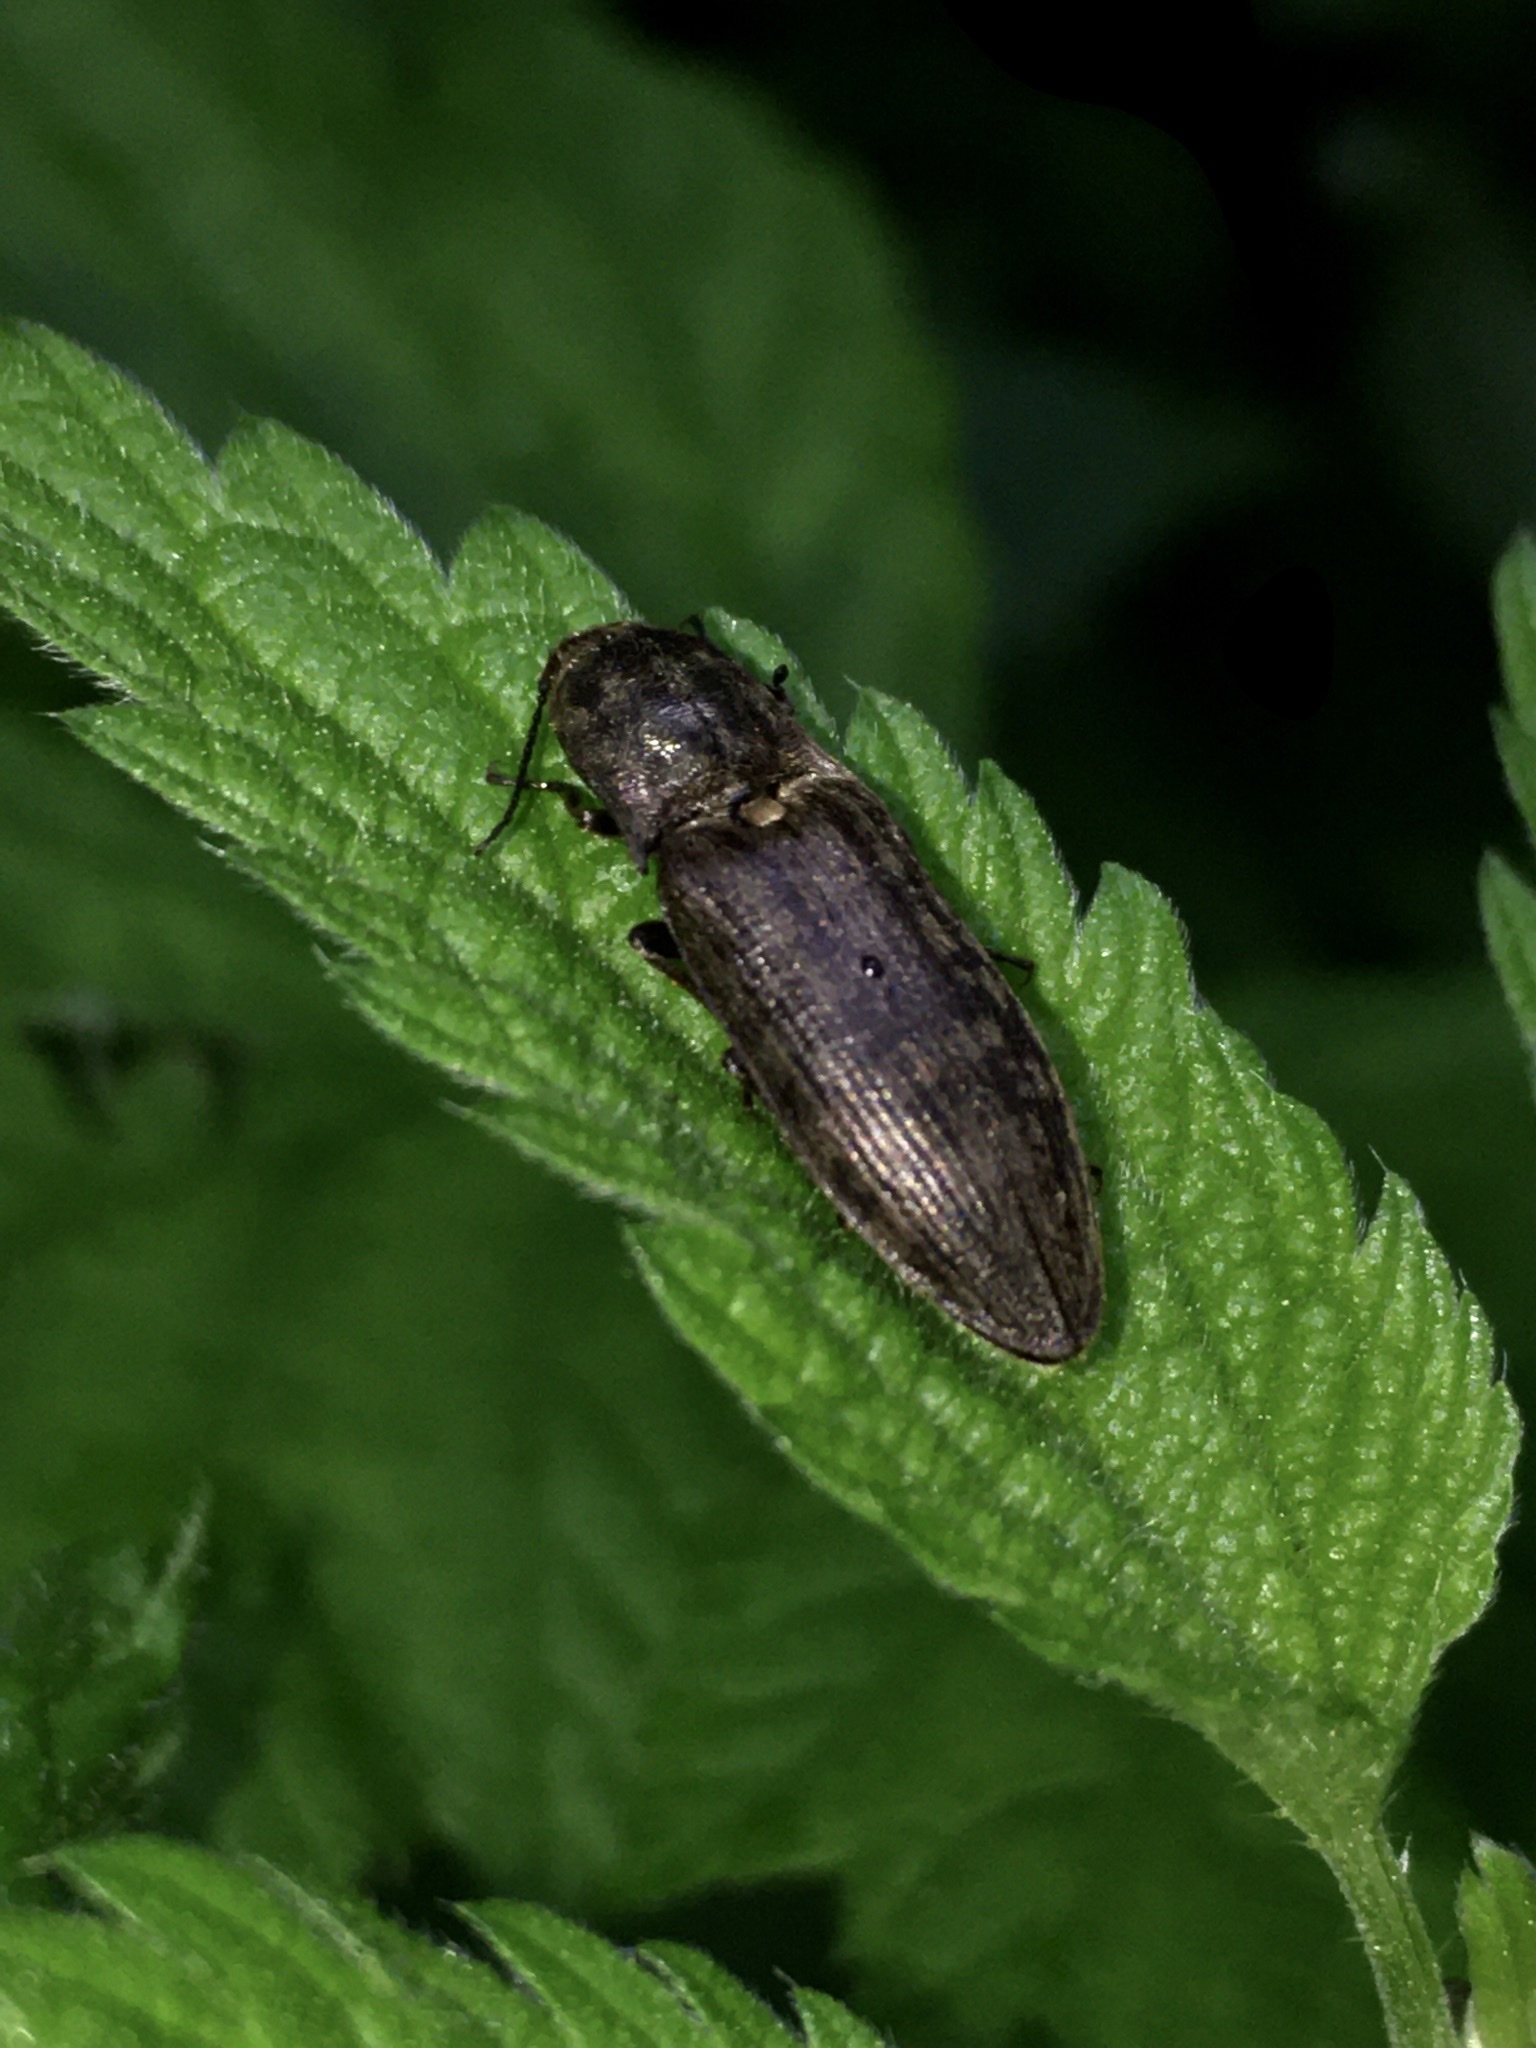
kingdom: Animalia
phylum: Arthropoda
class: Insecta
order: Coleoptera
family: Elateridae
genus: Actenicerus
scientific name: Actenicerus sjaelandicus
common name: Marsh click beetle
